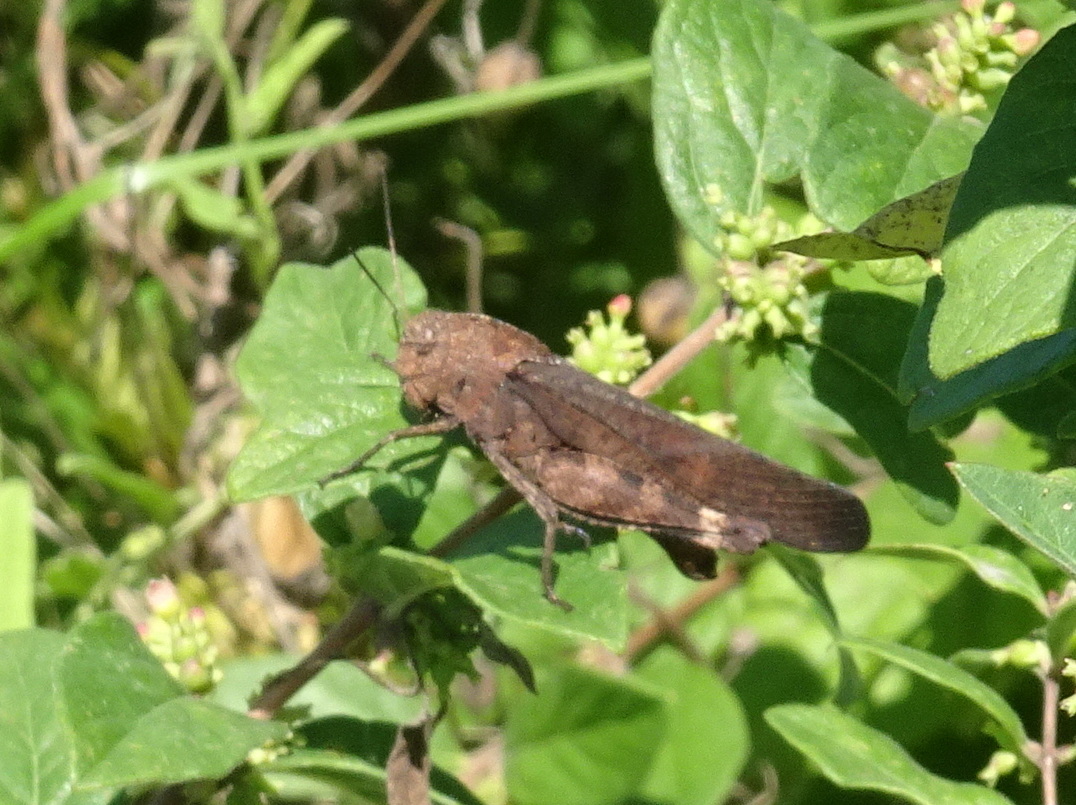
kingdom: Animalia
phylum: Arthropoda
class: Insecta
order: Orthoptera
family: Acrididae
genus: Arphia
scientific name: Arphia xanthoptera
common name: Autumn yellow-winged grasshopper
